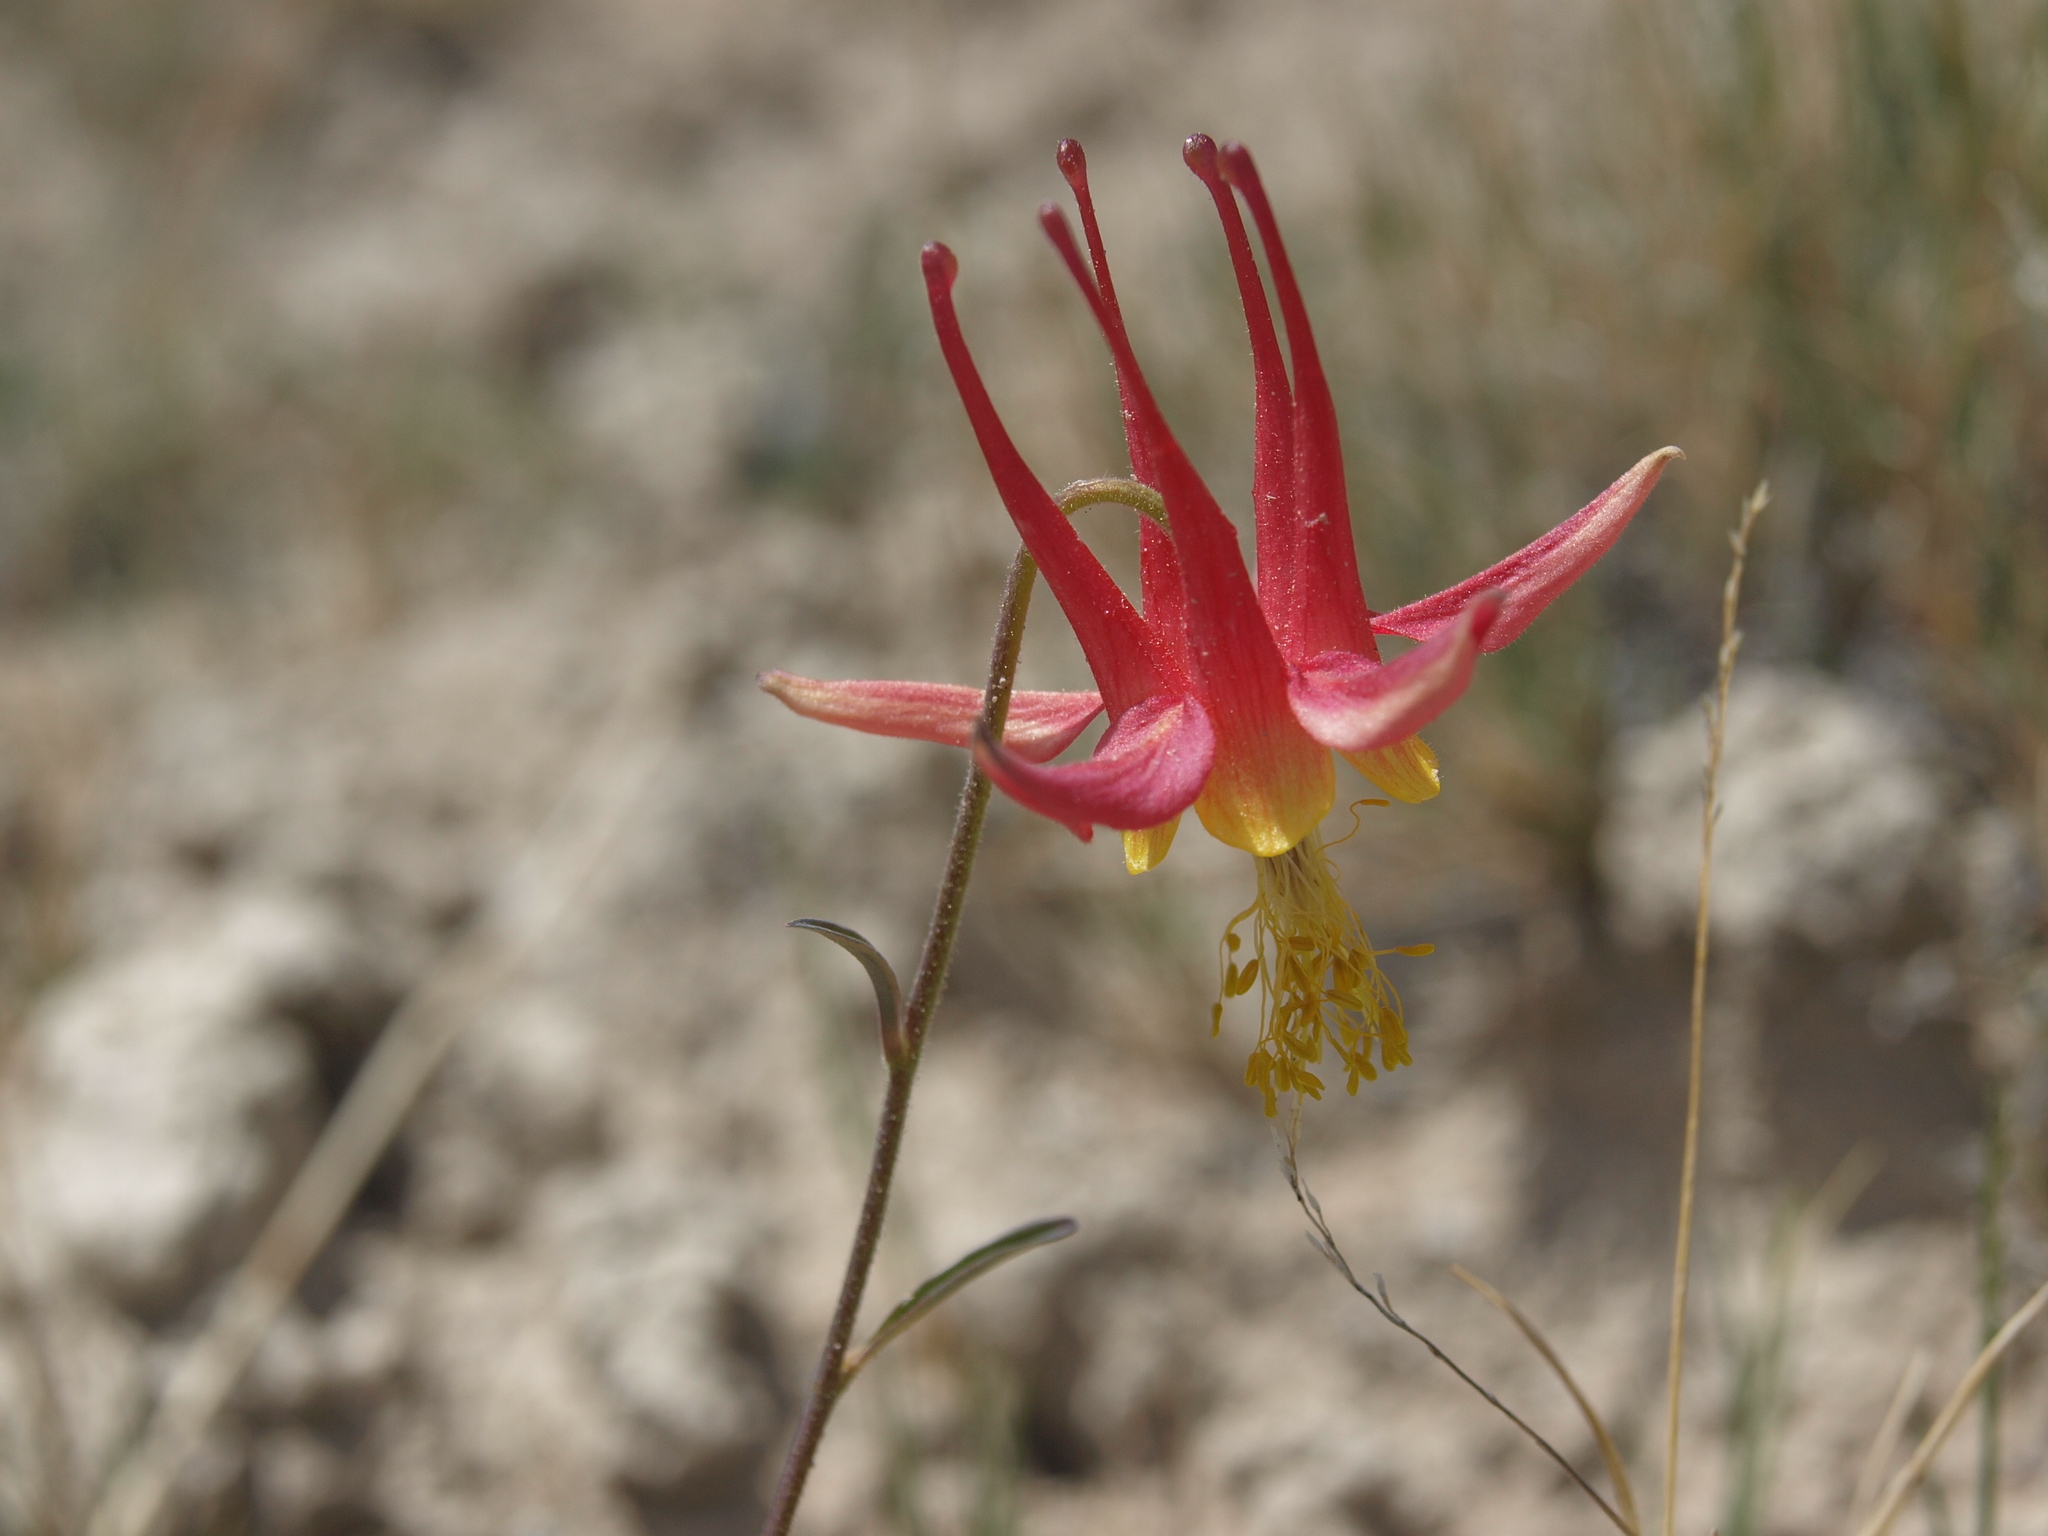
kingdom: Plantae
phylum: Tracheophyta
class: Magnoliopsida
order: Ranunculales
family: Ranunculaceae
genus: Aquilegia
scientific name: Aquilegia formosa
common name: Sitka columbine
